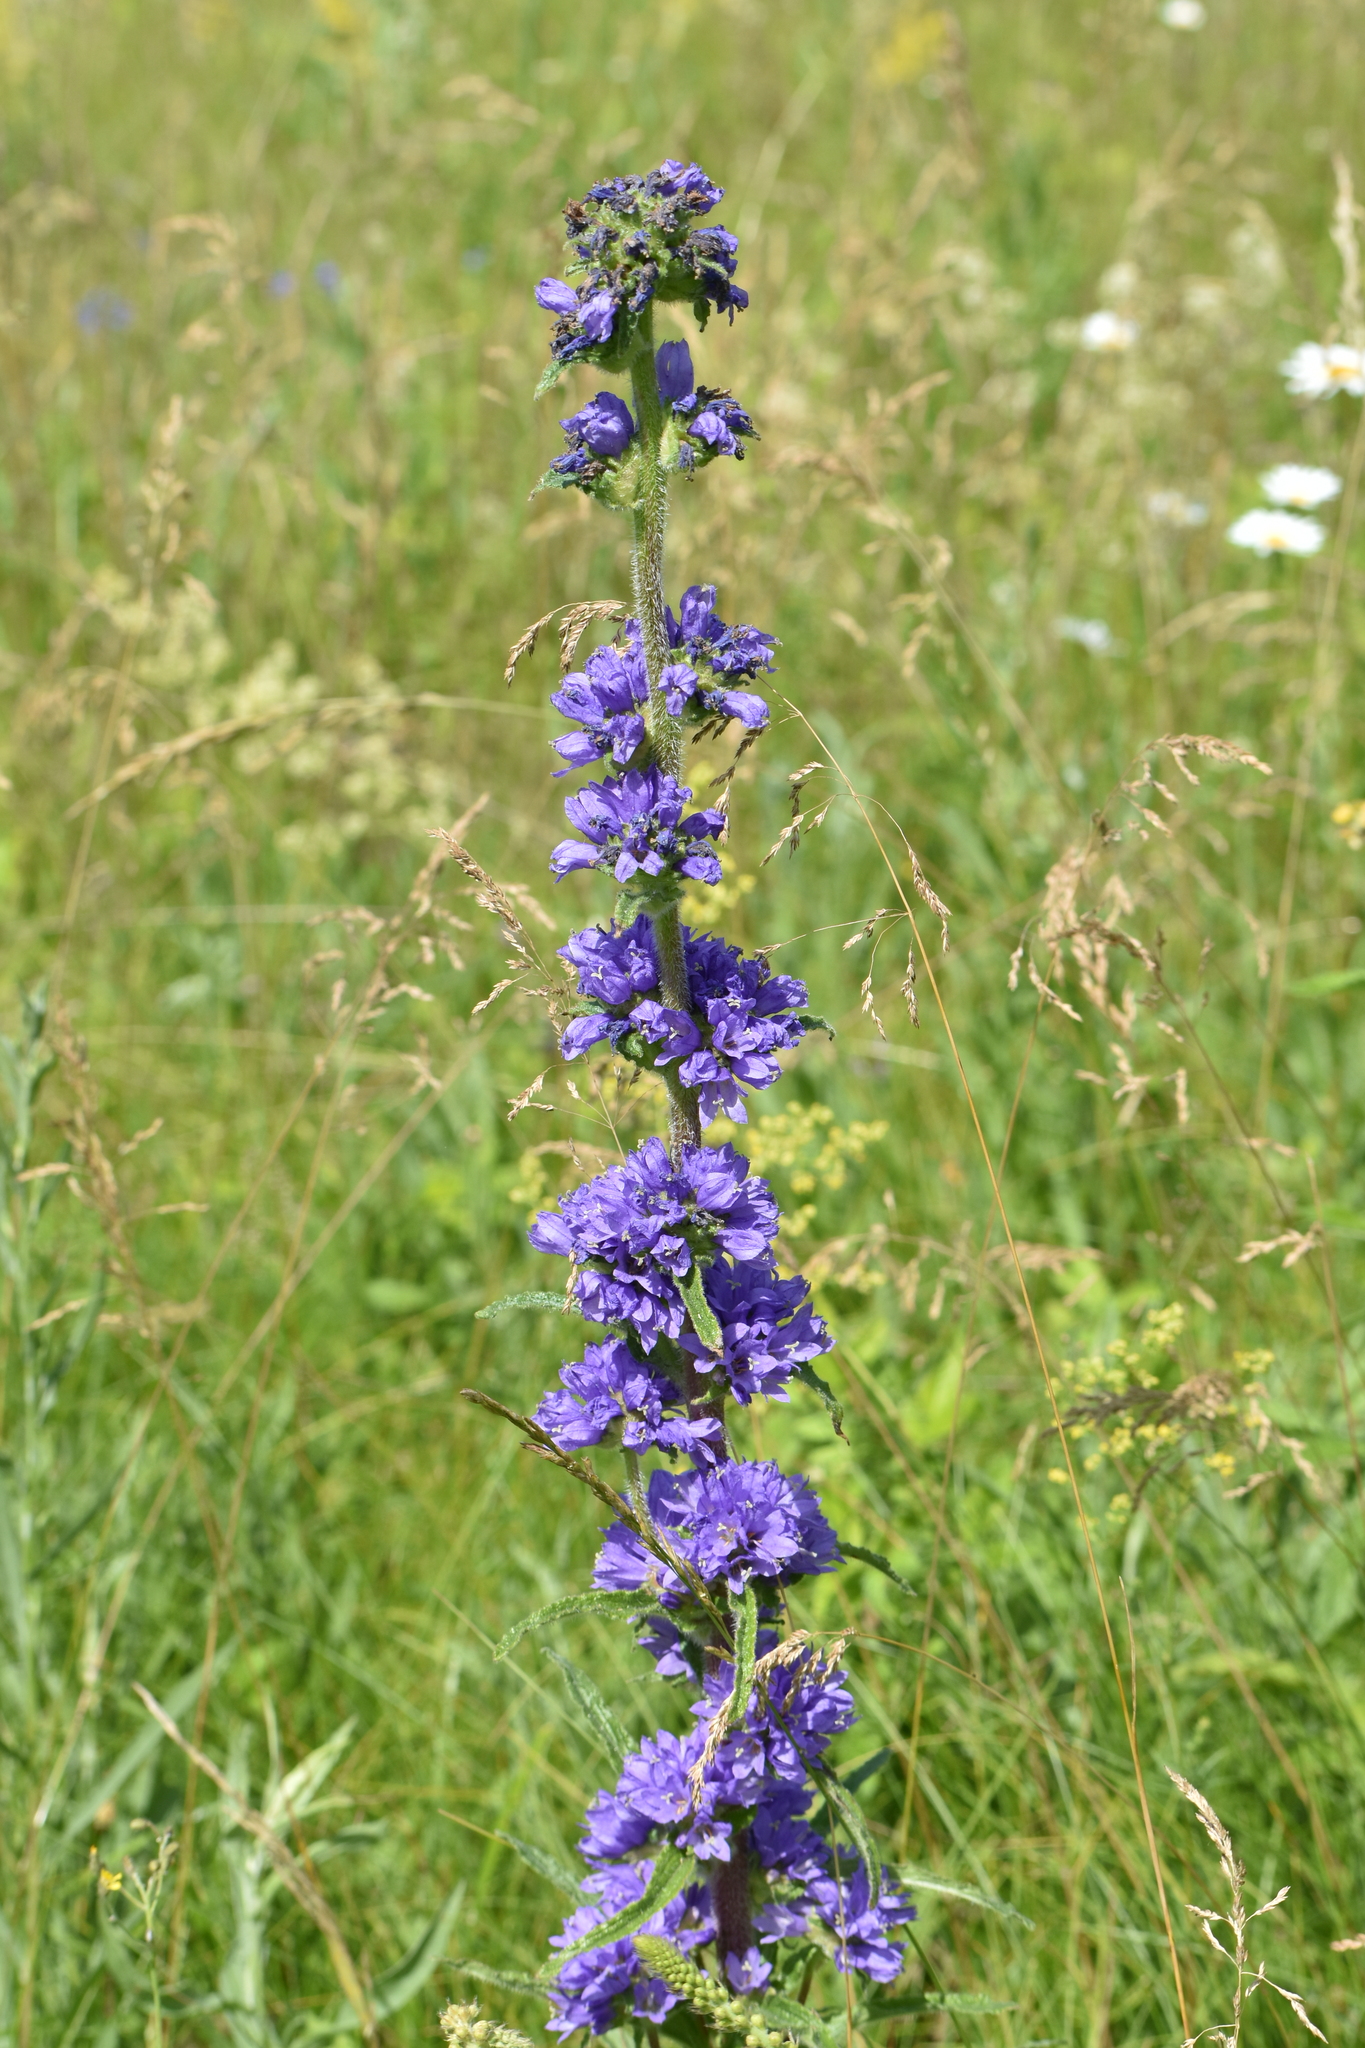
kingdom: Plantae
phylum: Tracheophyta
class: Magnoliopsida
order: Asterales
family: Campanulaceae
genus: Campanula
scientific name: Campanula cervicaria
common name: Bristly bellflower
